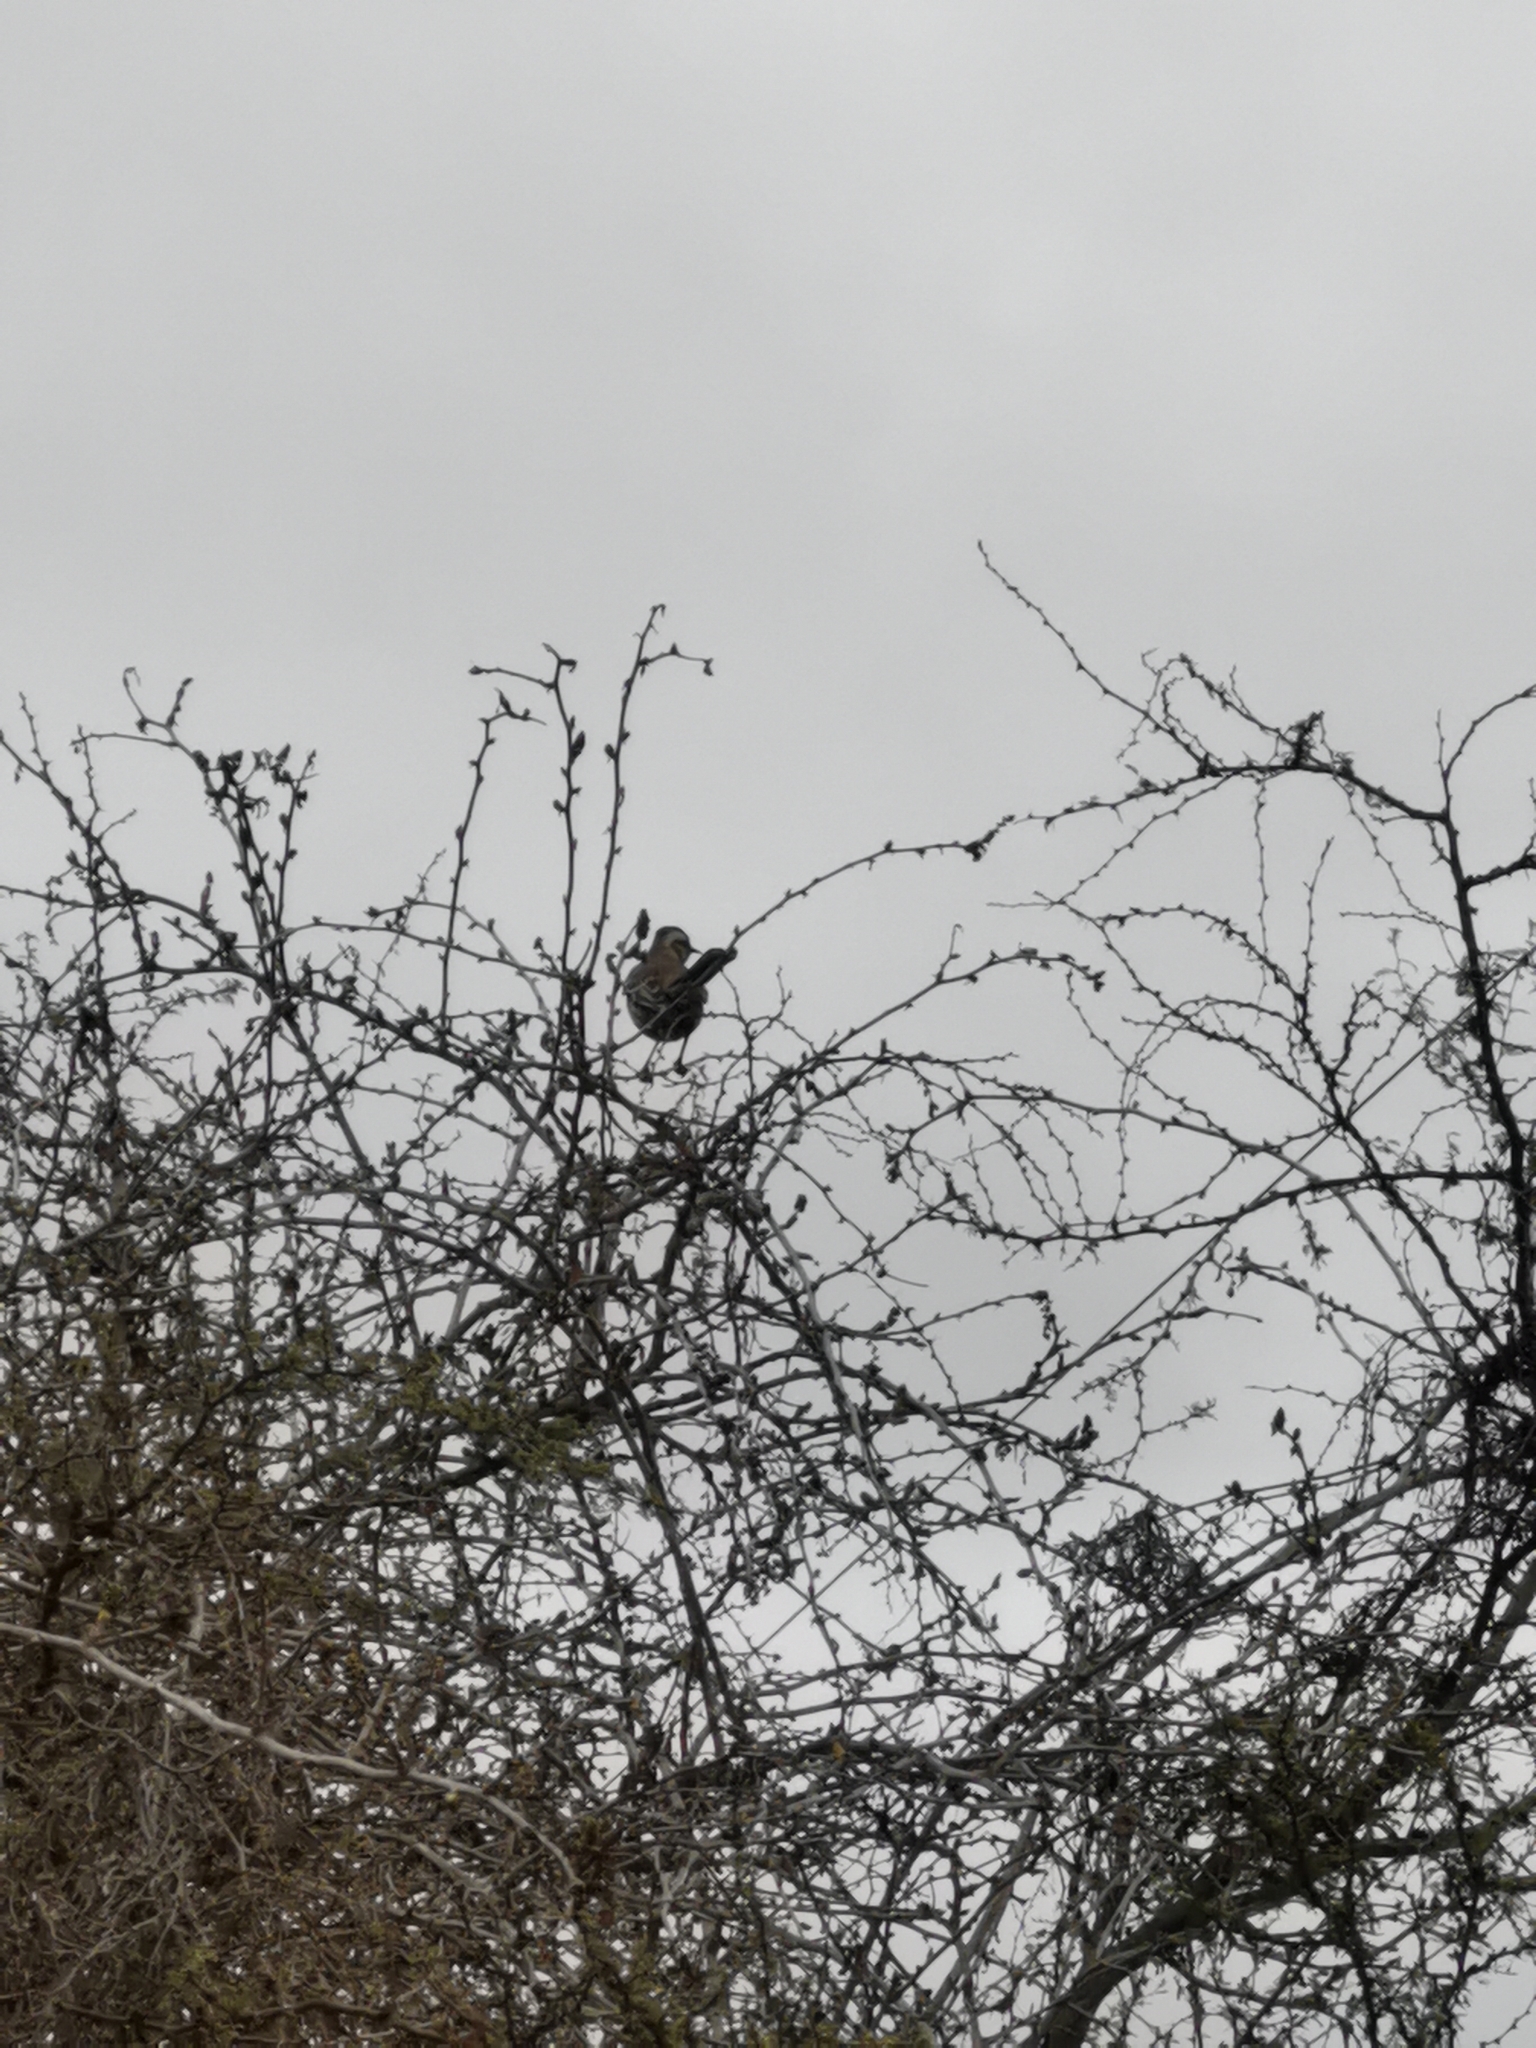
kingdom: Animalia
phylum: Chordata
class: Aves
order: Passeriformes
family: Mimidae
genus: Mimus
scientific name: Mimus thenca
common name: Chilean mockingbird
